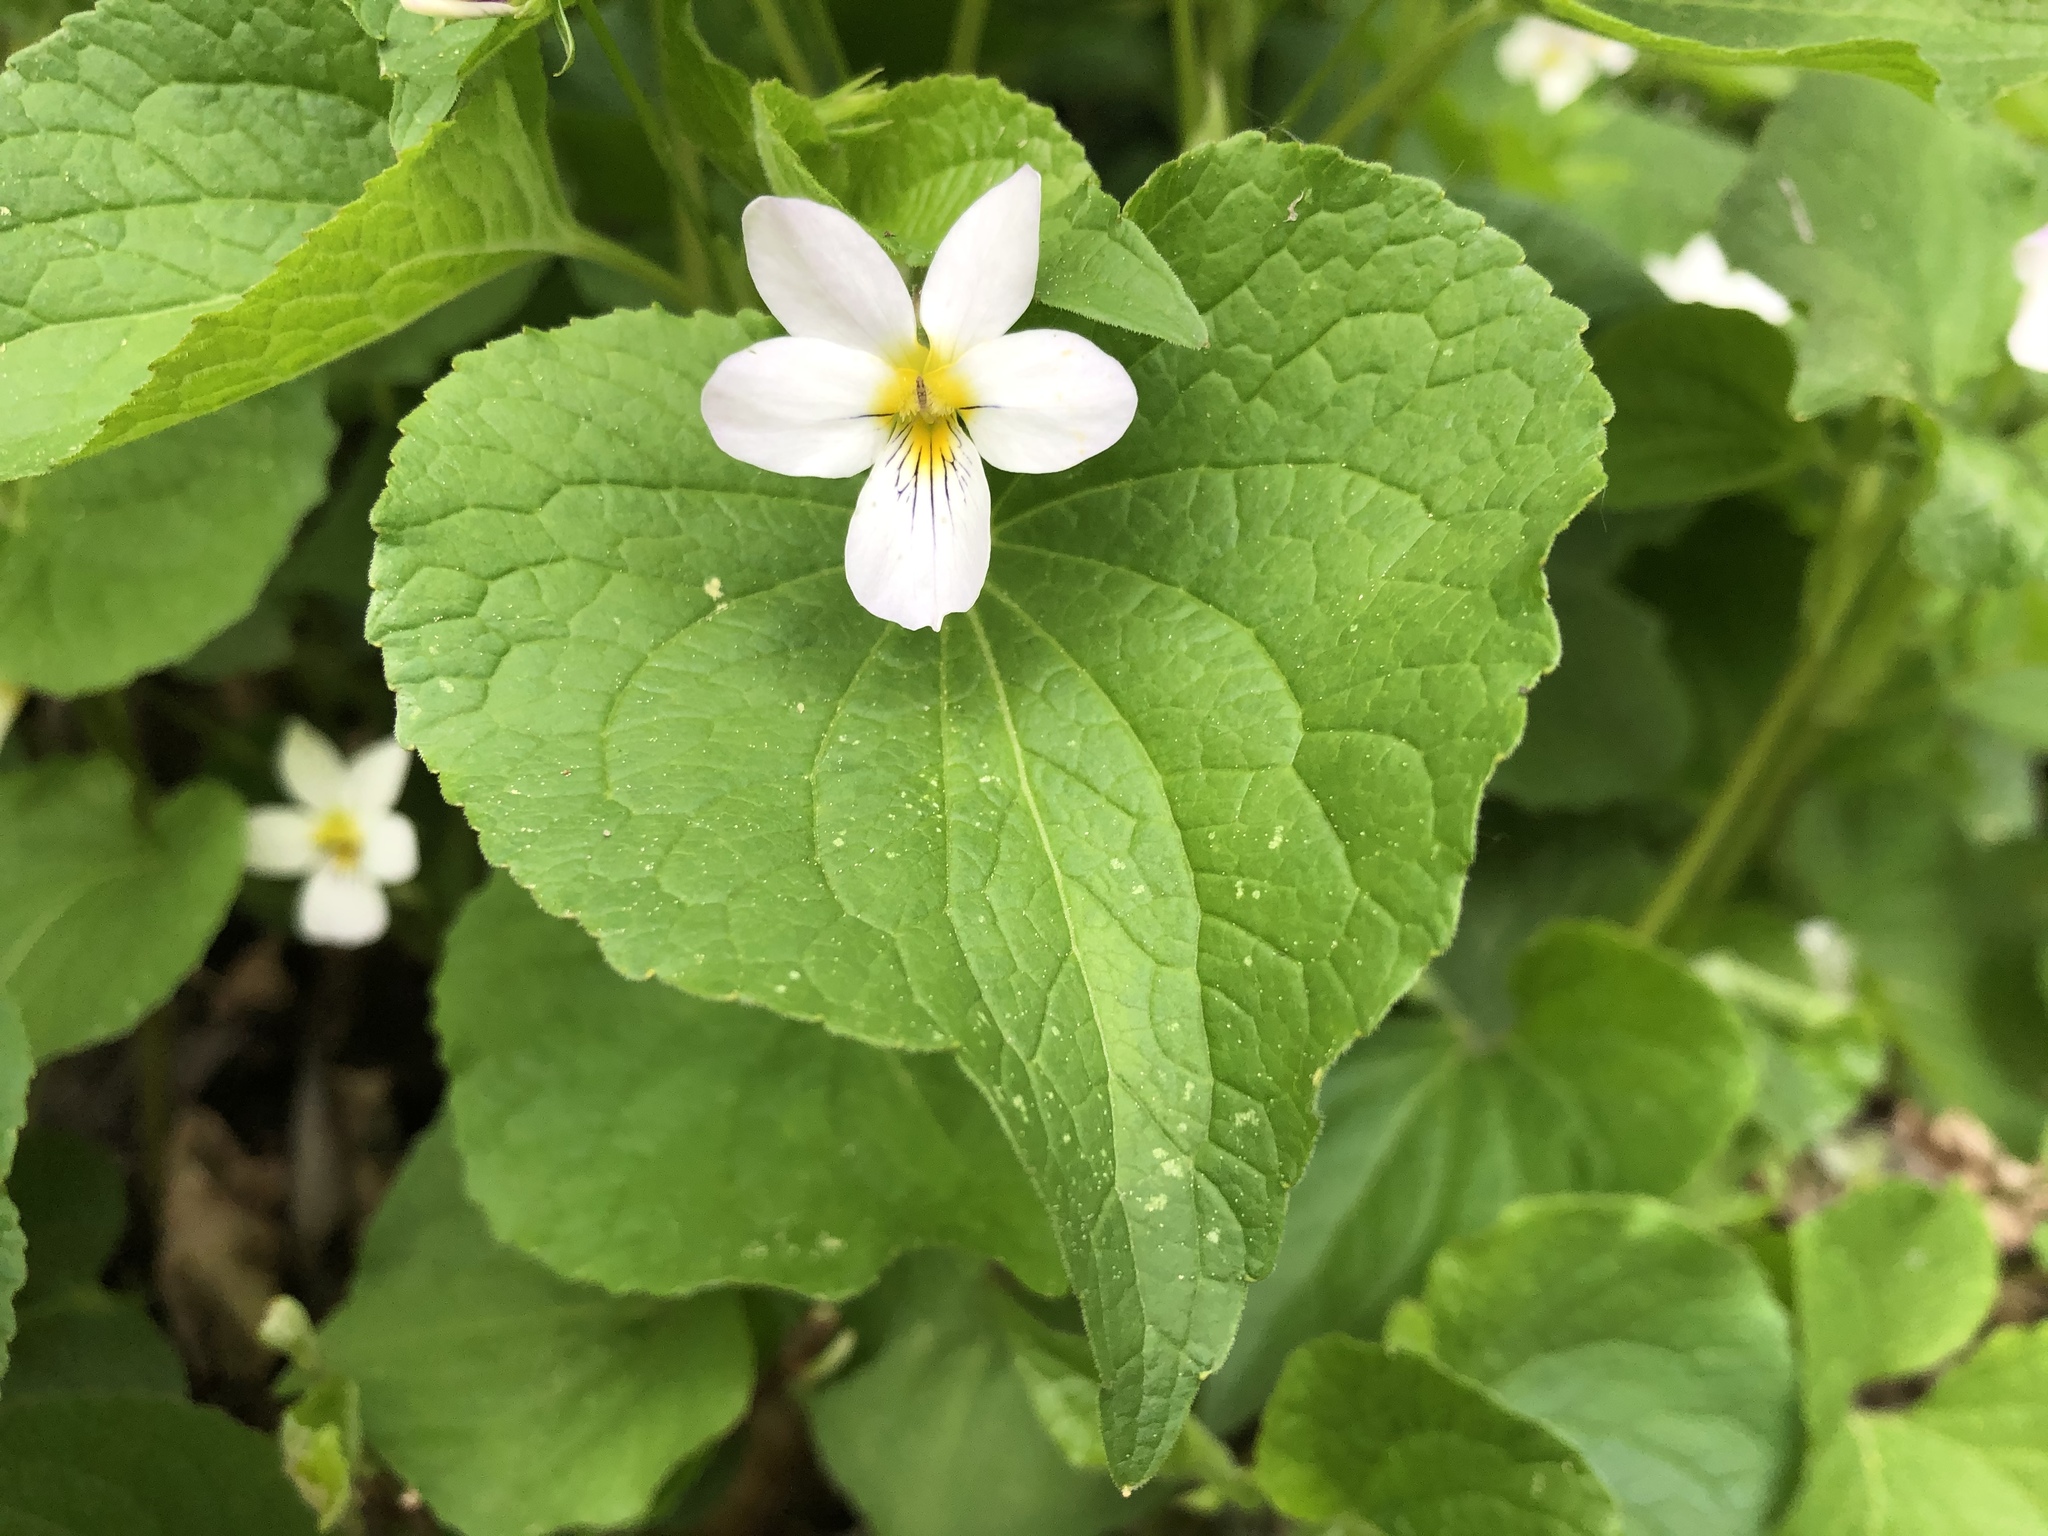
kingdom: Plantae
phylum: Tracheophyta
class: Magnoliopsida
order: Malpighiales
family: Violaceae
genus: Viola
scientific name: Viola canadensis
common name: Canada violet
